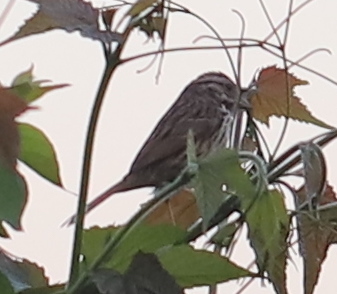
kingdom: Animalia
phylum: Chordata
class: Aves
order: Passeriformes
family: Passerellidae
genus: Melospiza
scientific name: Melospiza melodia
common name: Song sparrow
